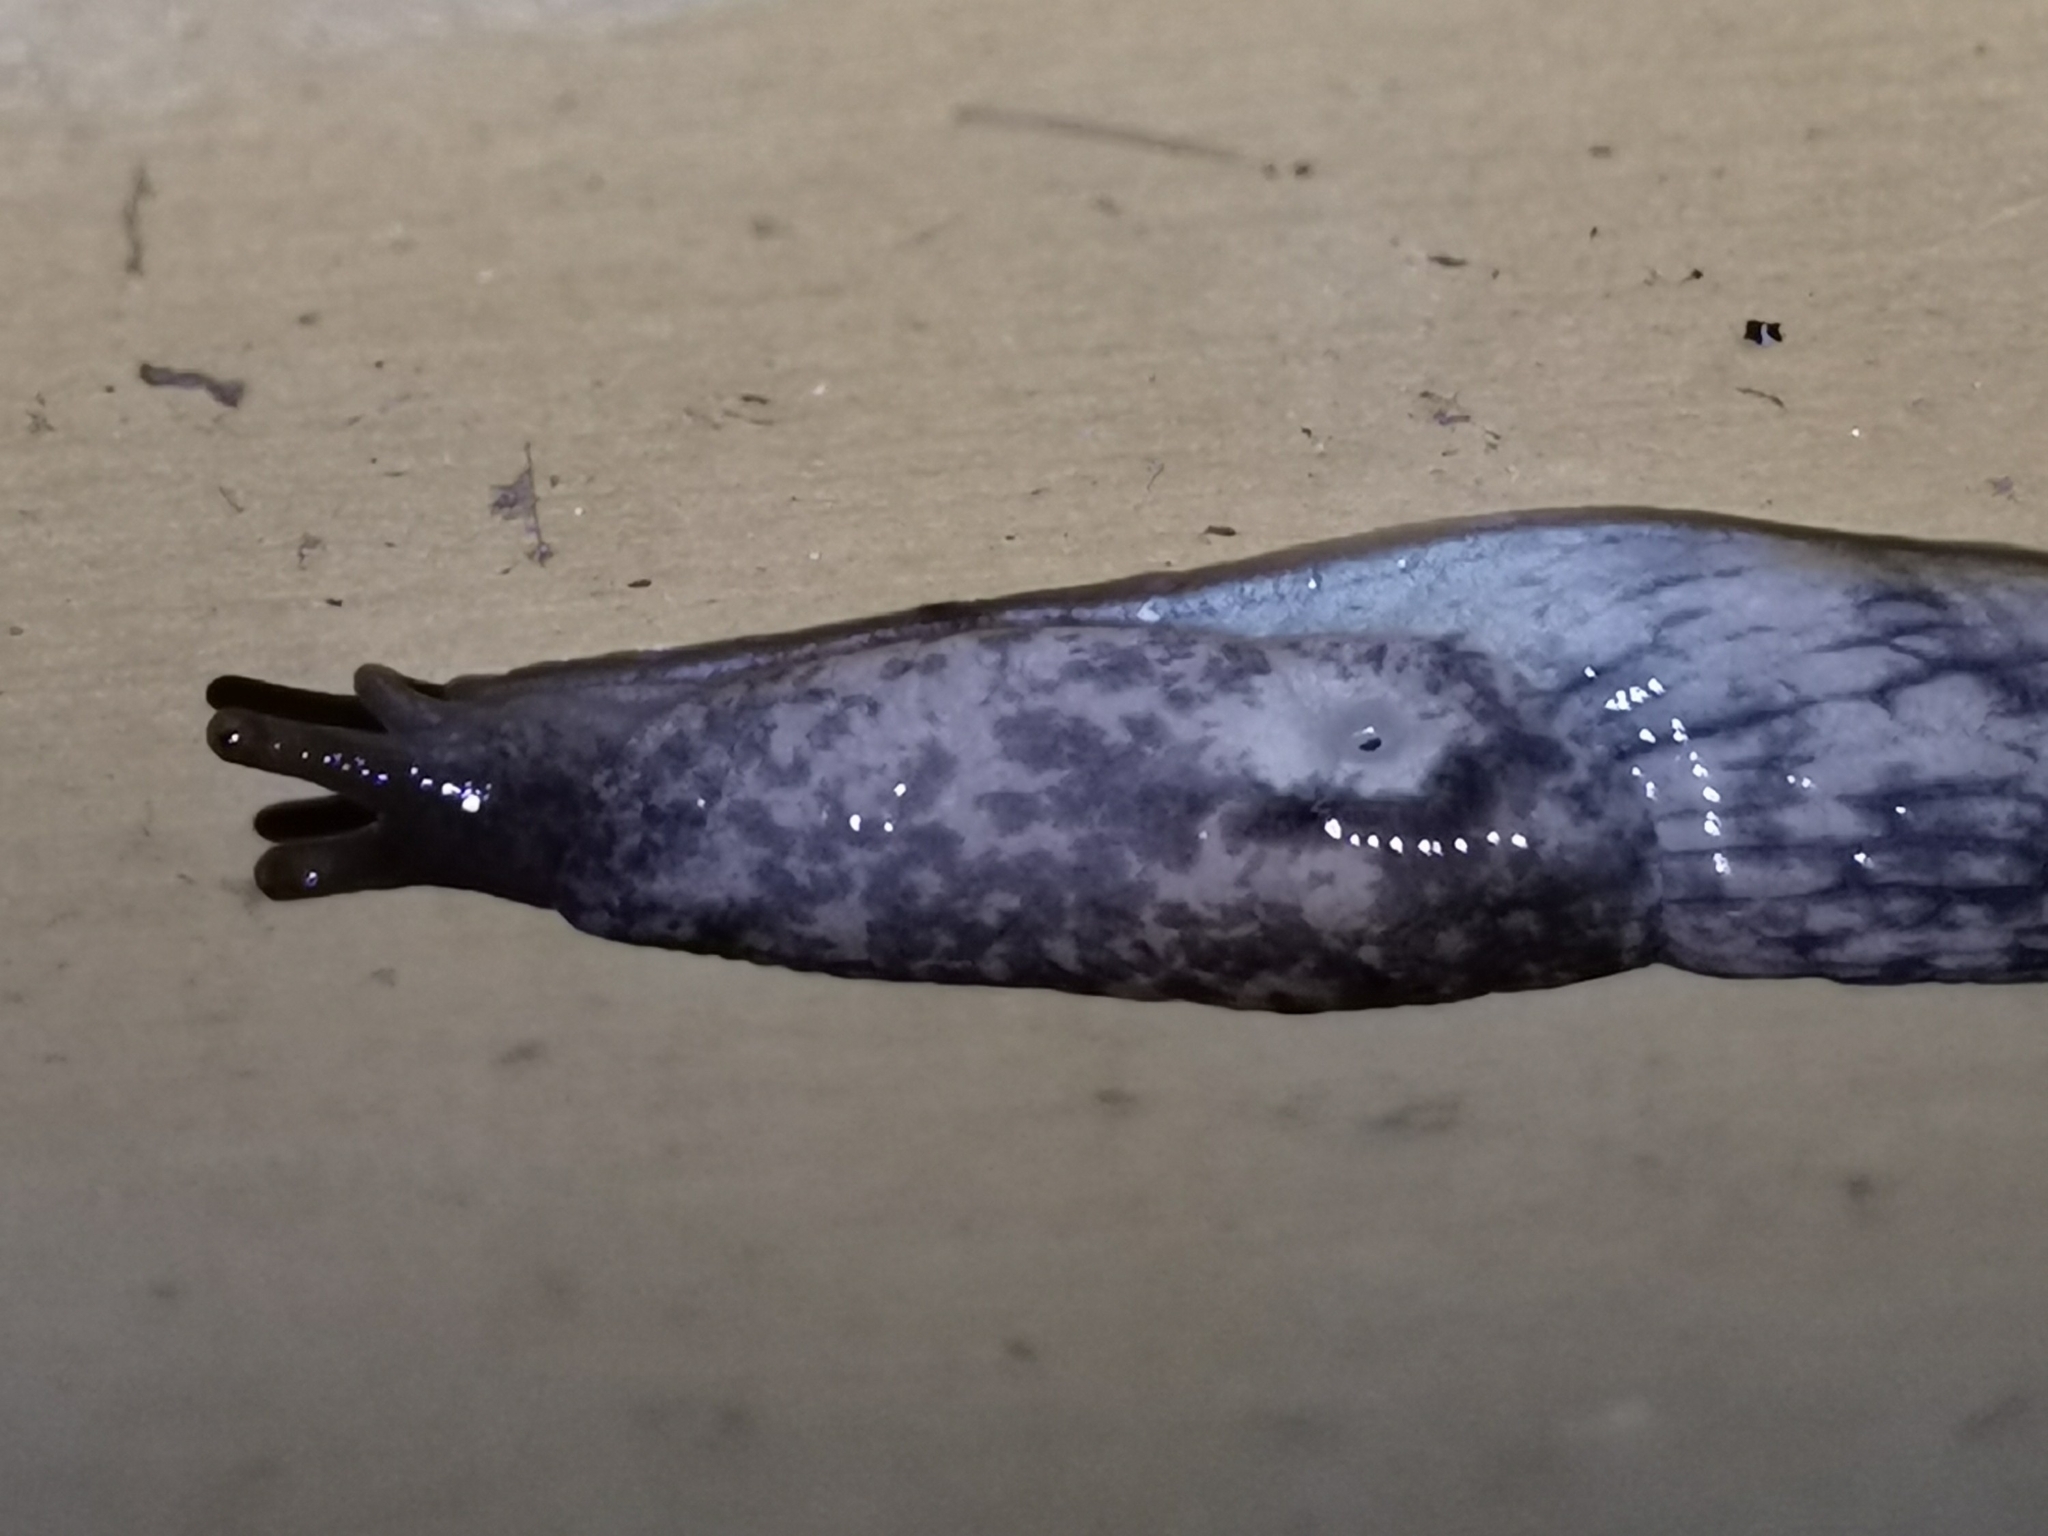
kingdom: Animalia
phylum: Mollusca
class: Gastropoda
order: Stylommatophora
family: Agriolimacidae
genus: Deroceras
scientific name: Deroceras reticulatum
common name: Gray field slug
